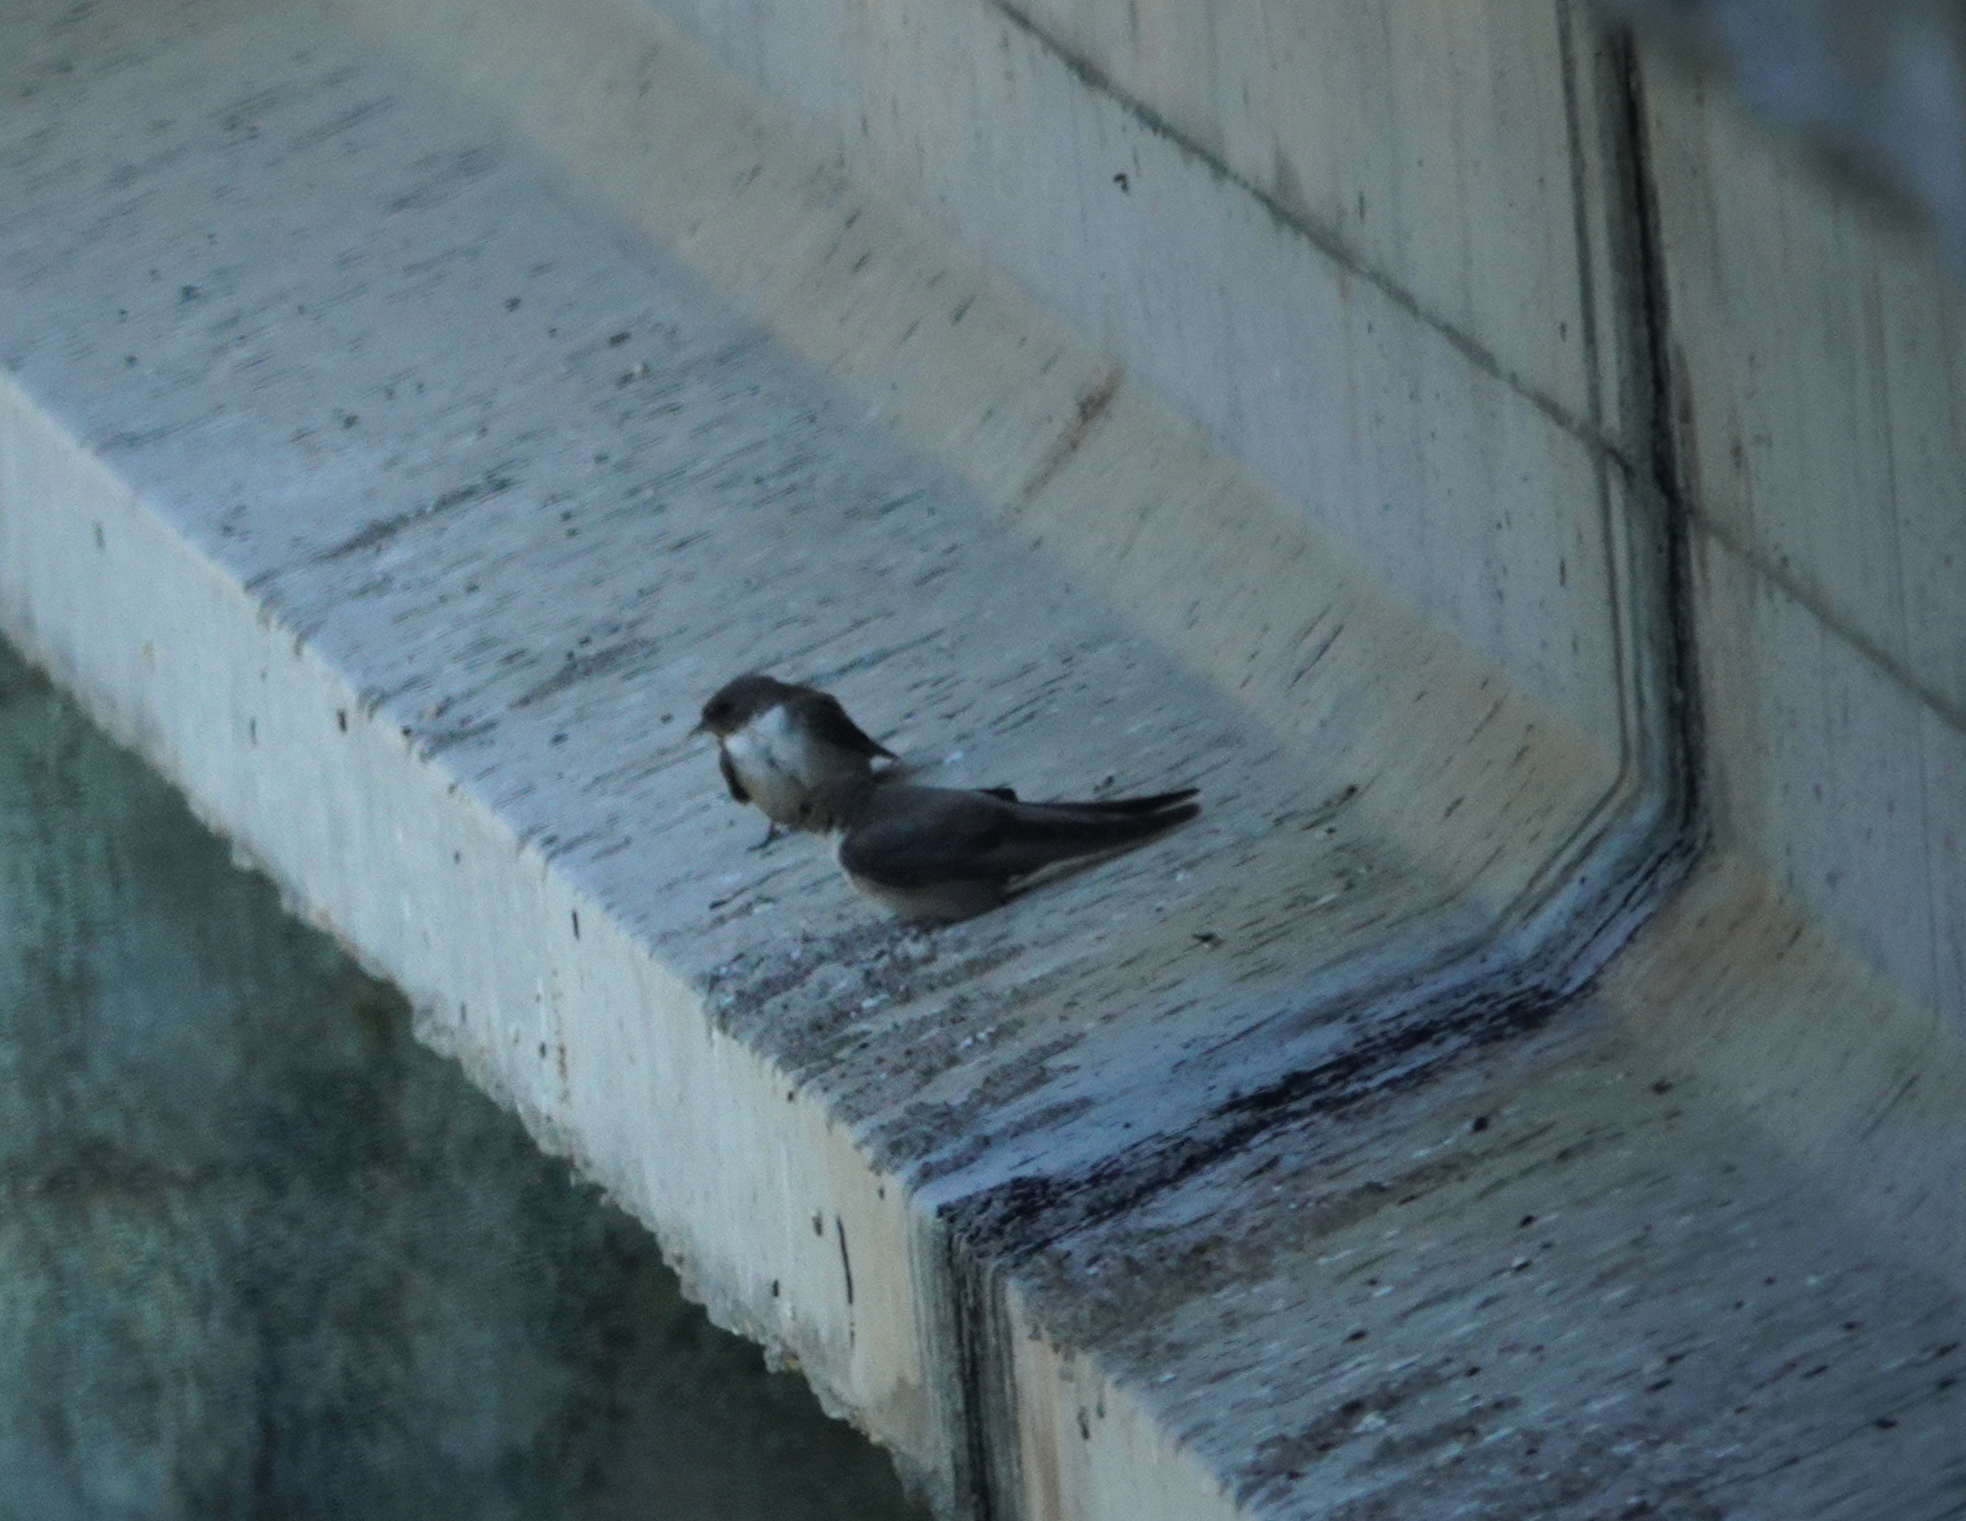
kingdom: Animalia
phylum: Chordata
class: Aves
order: Passeriformes
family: Hirundinidae
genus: Ptyonoprogne
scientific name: Ptyonoprogne rupestris
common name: Eurasian crag martin
